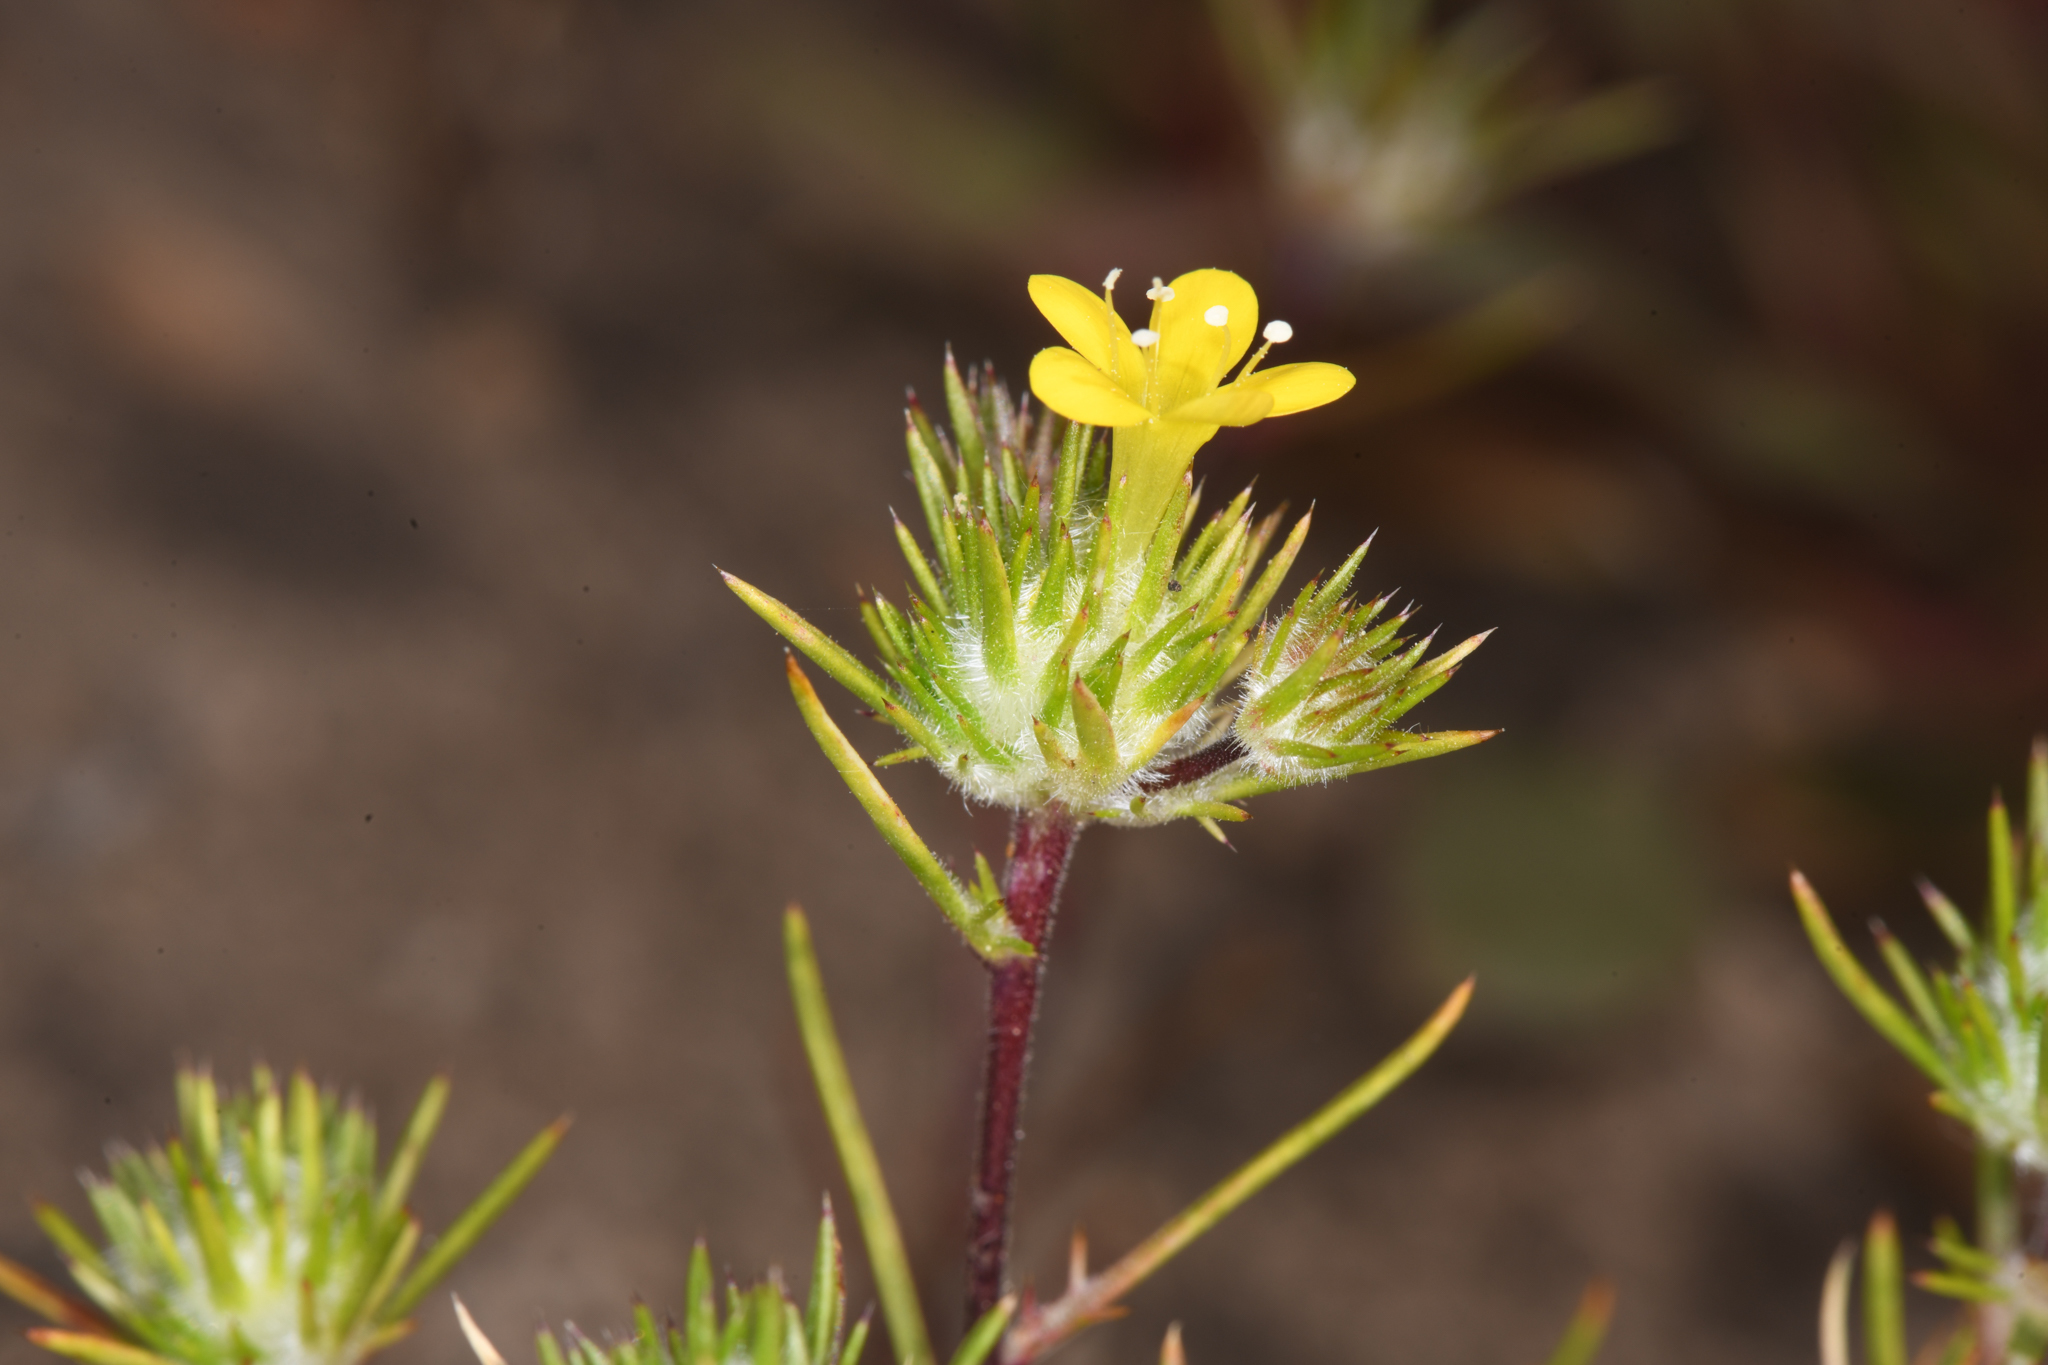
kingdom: Plantae
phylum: Tracheophyta
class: Magnoliopsida
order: Ericales
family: Polemoniaceae
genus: Navarretia
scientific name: Navarretia prolifera
